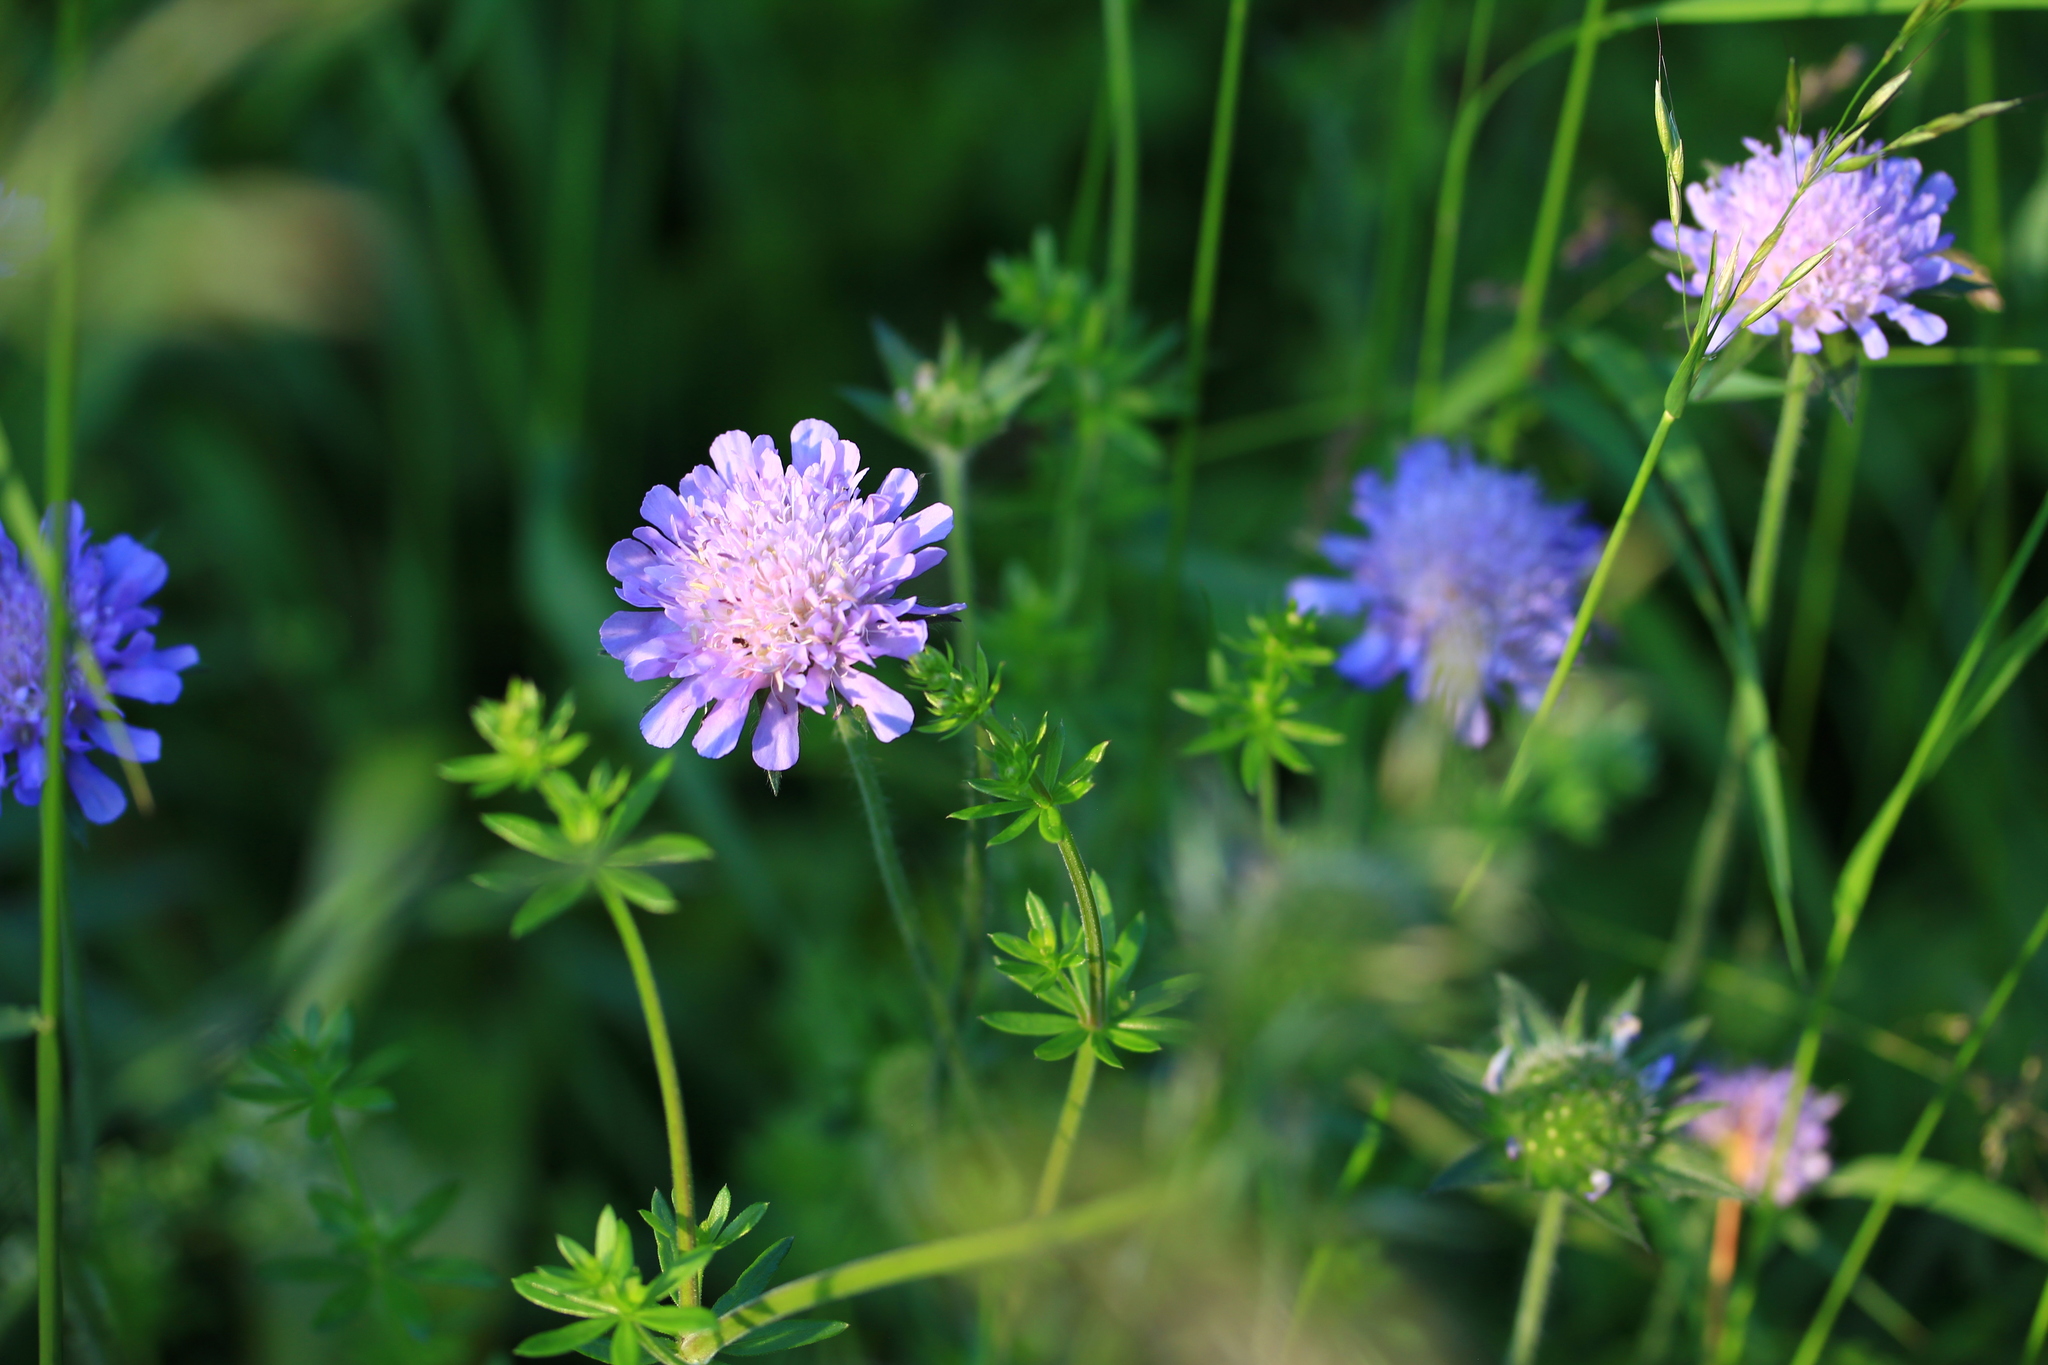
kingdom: Plantae
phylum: Tracheophyta
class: Magnoliopsida
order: Dipsacales
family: Caprifoliaceae
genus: Knautia
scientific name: Knautia arvensis
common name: Field scabiosa
